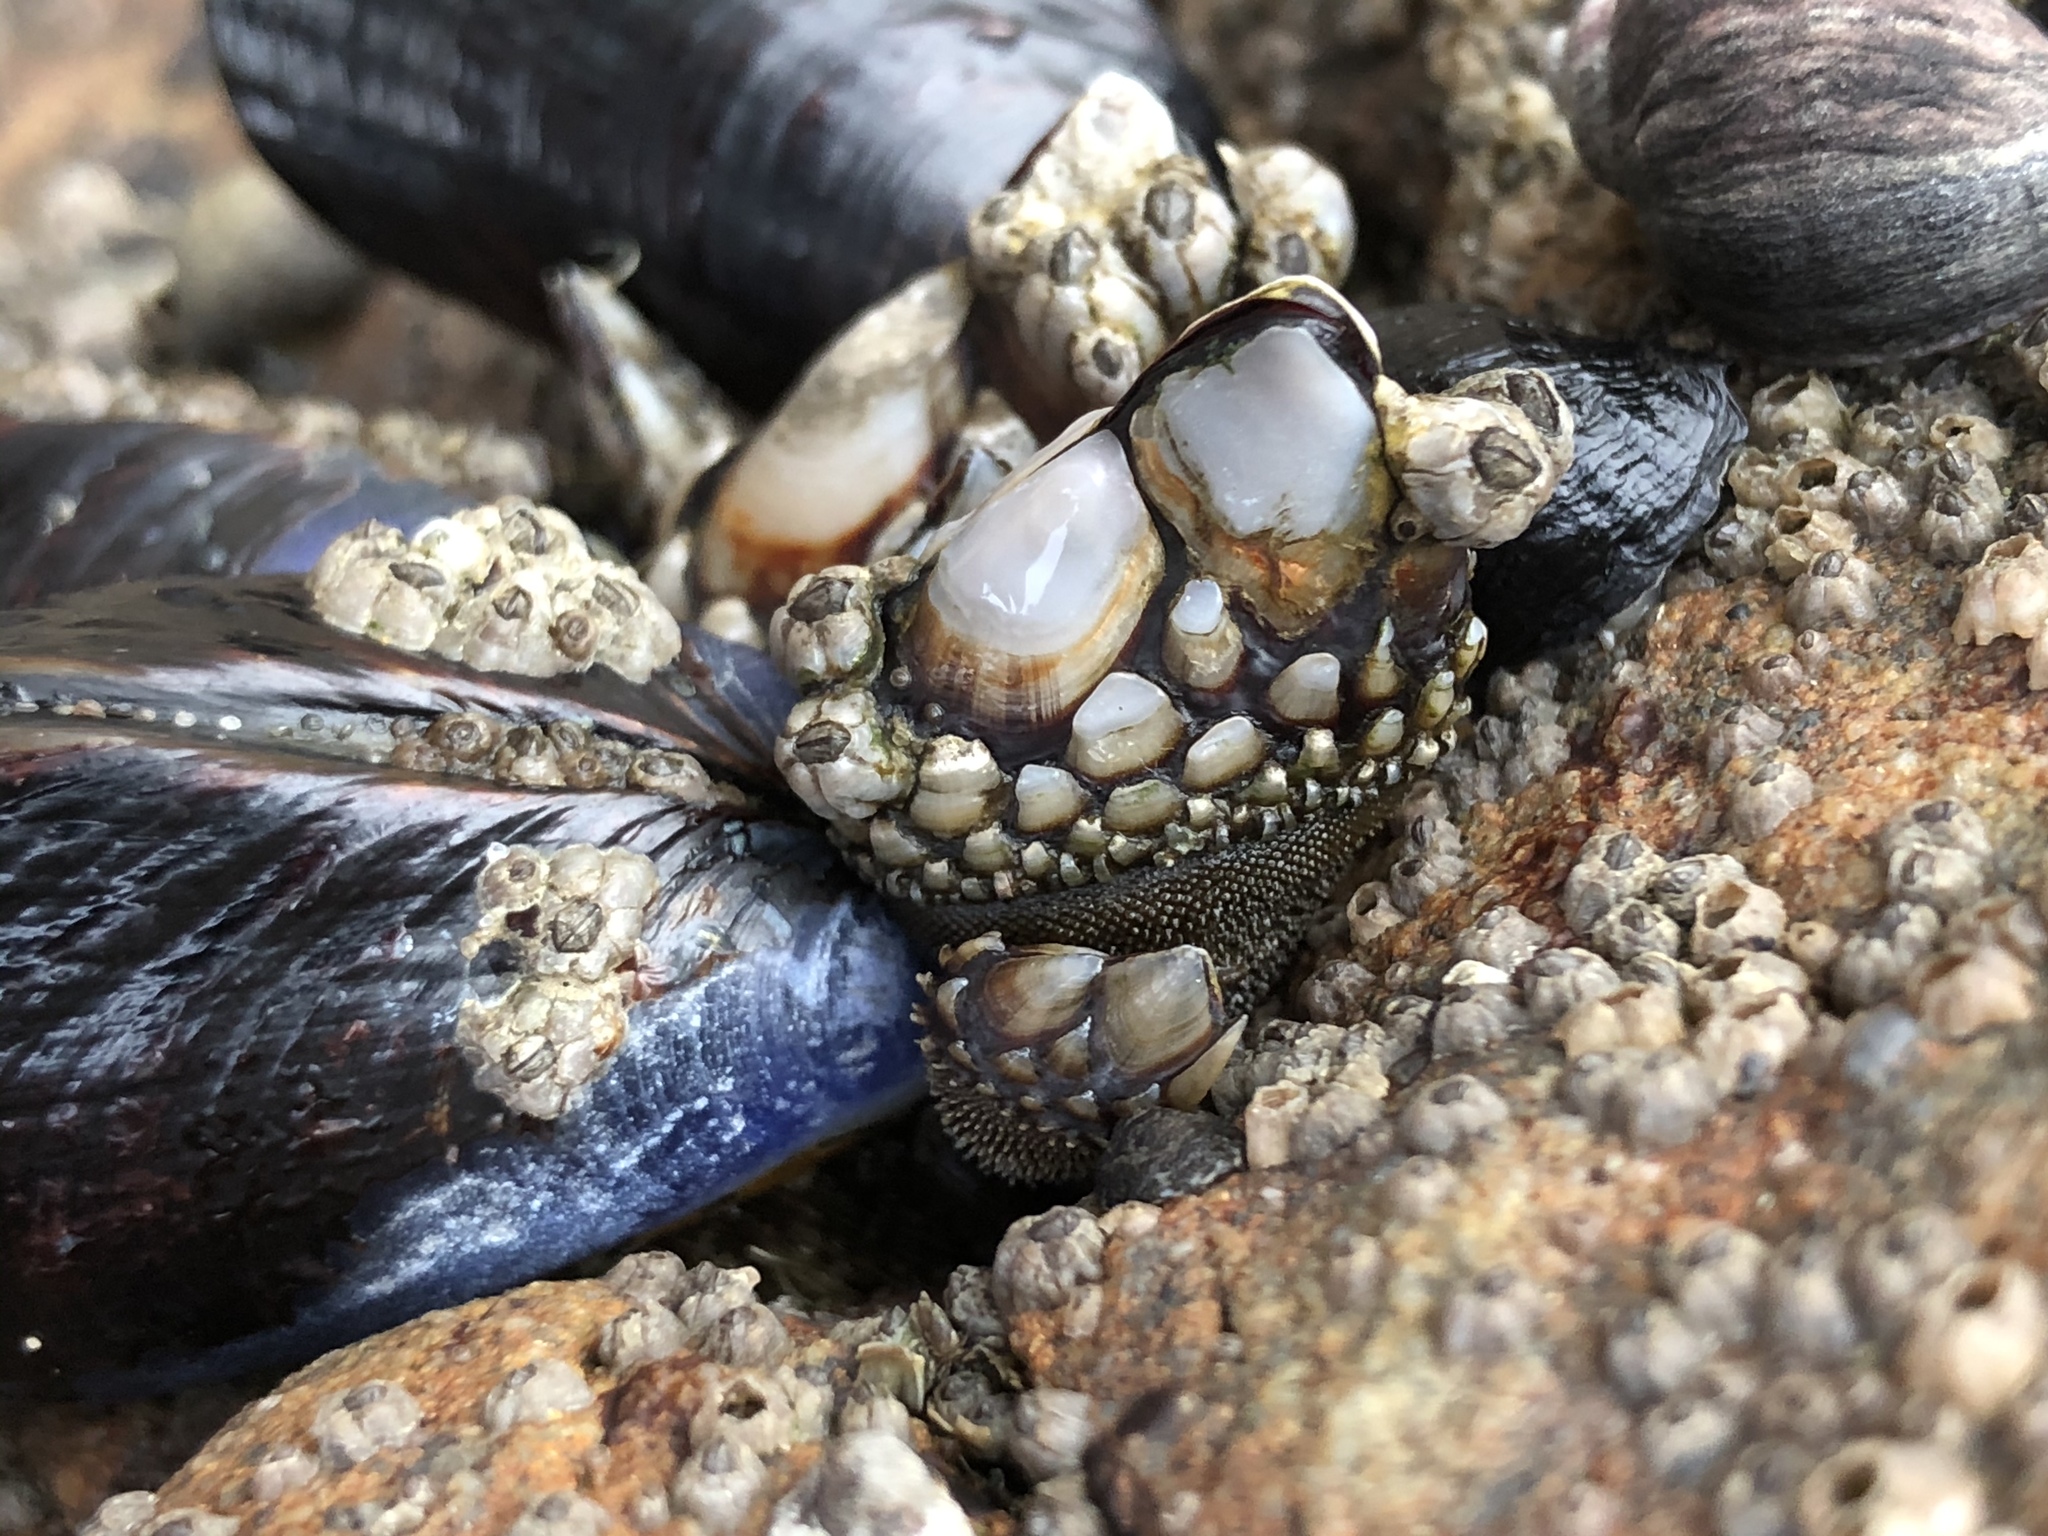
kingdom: Animalia
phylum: Arthropoda
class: Maxillopoda
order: Pedunculata
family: Pollicipedidae
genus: Pollicipes
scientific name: Pollicipes polymerus
